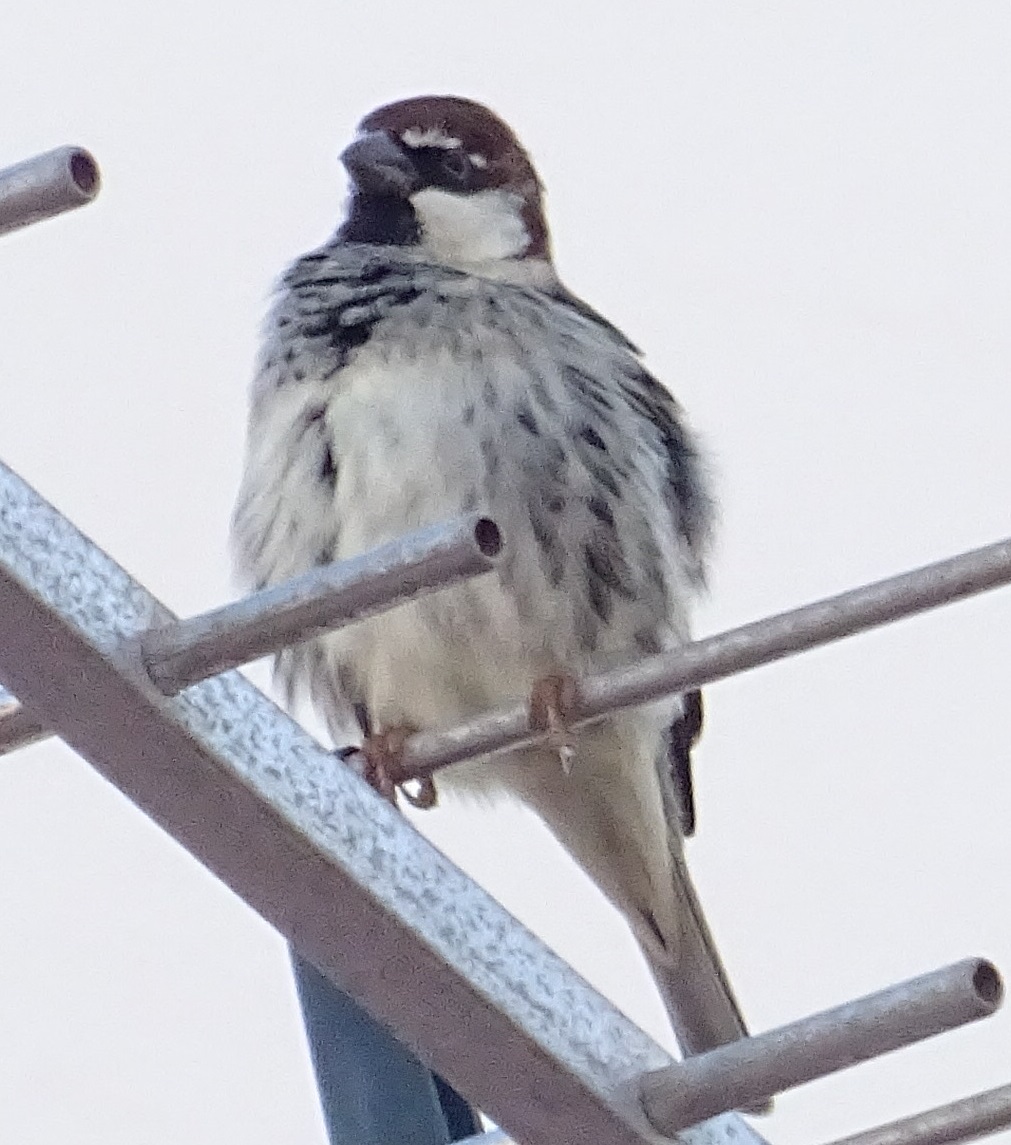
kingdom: Animalia
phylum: Chordata
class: Aves
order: Passeriformes
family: Passeridae
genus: Passer
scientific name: Passer hispaniolensis
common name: Spanish sparrow
